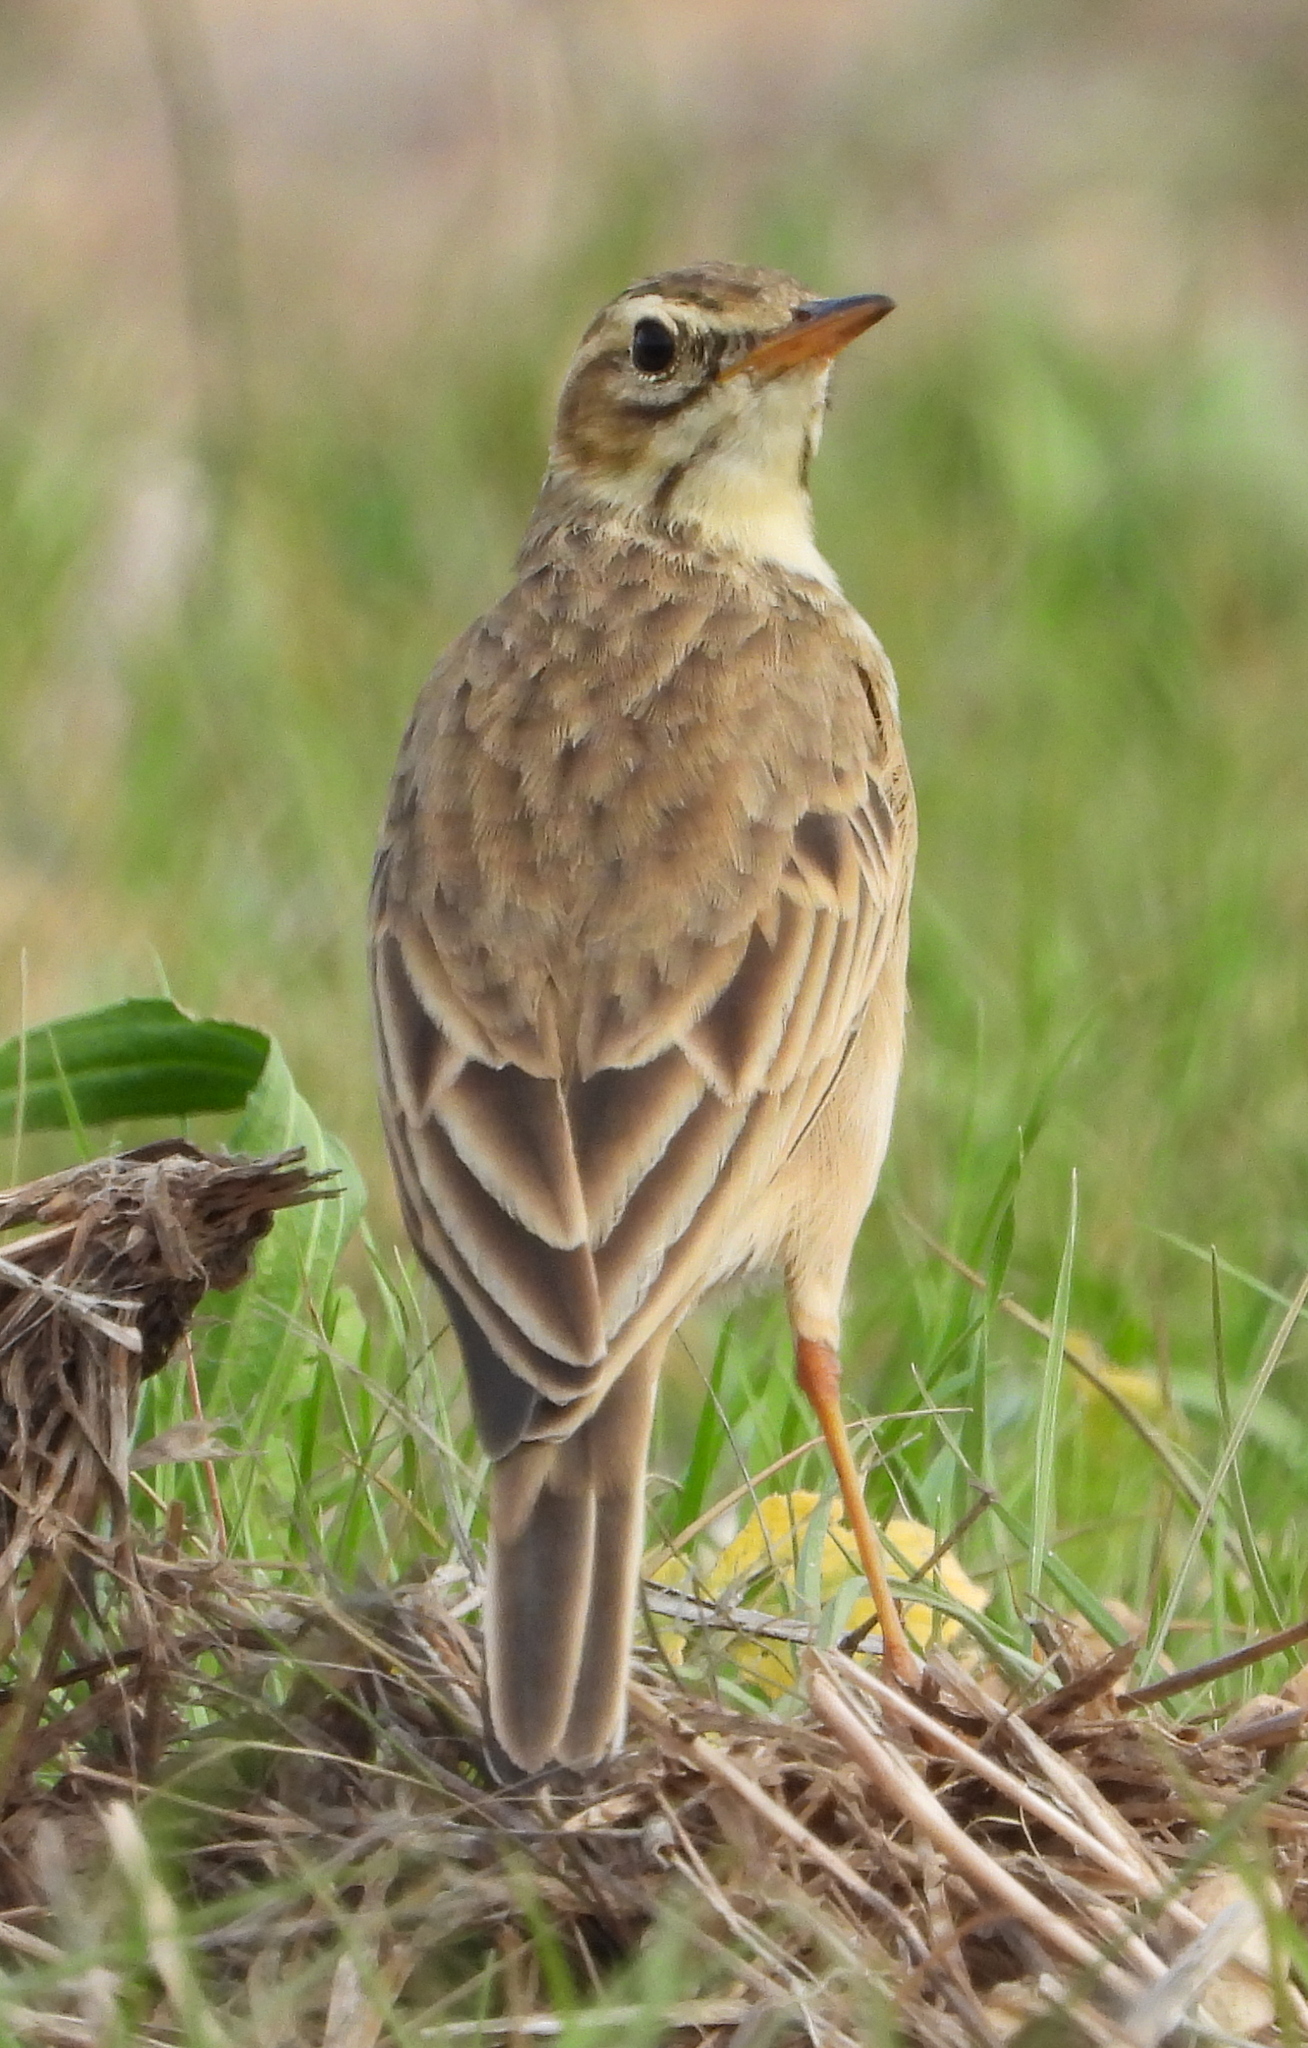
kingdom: Animalia
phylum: Chordata
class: Aves
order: Passeriformes
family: Motacillidae
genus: Anthus
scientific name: Anthus cinnamomeus
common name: African pipit
